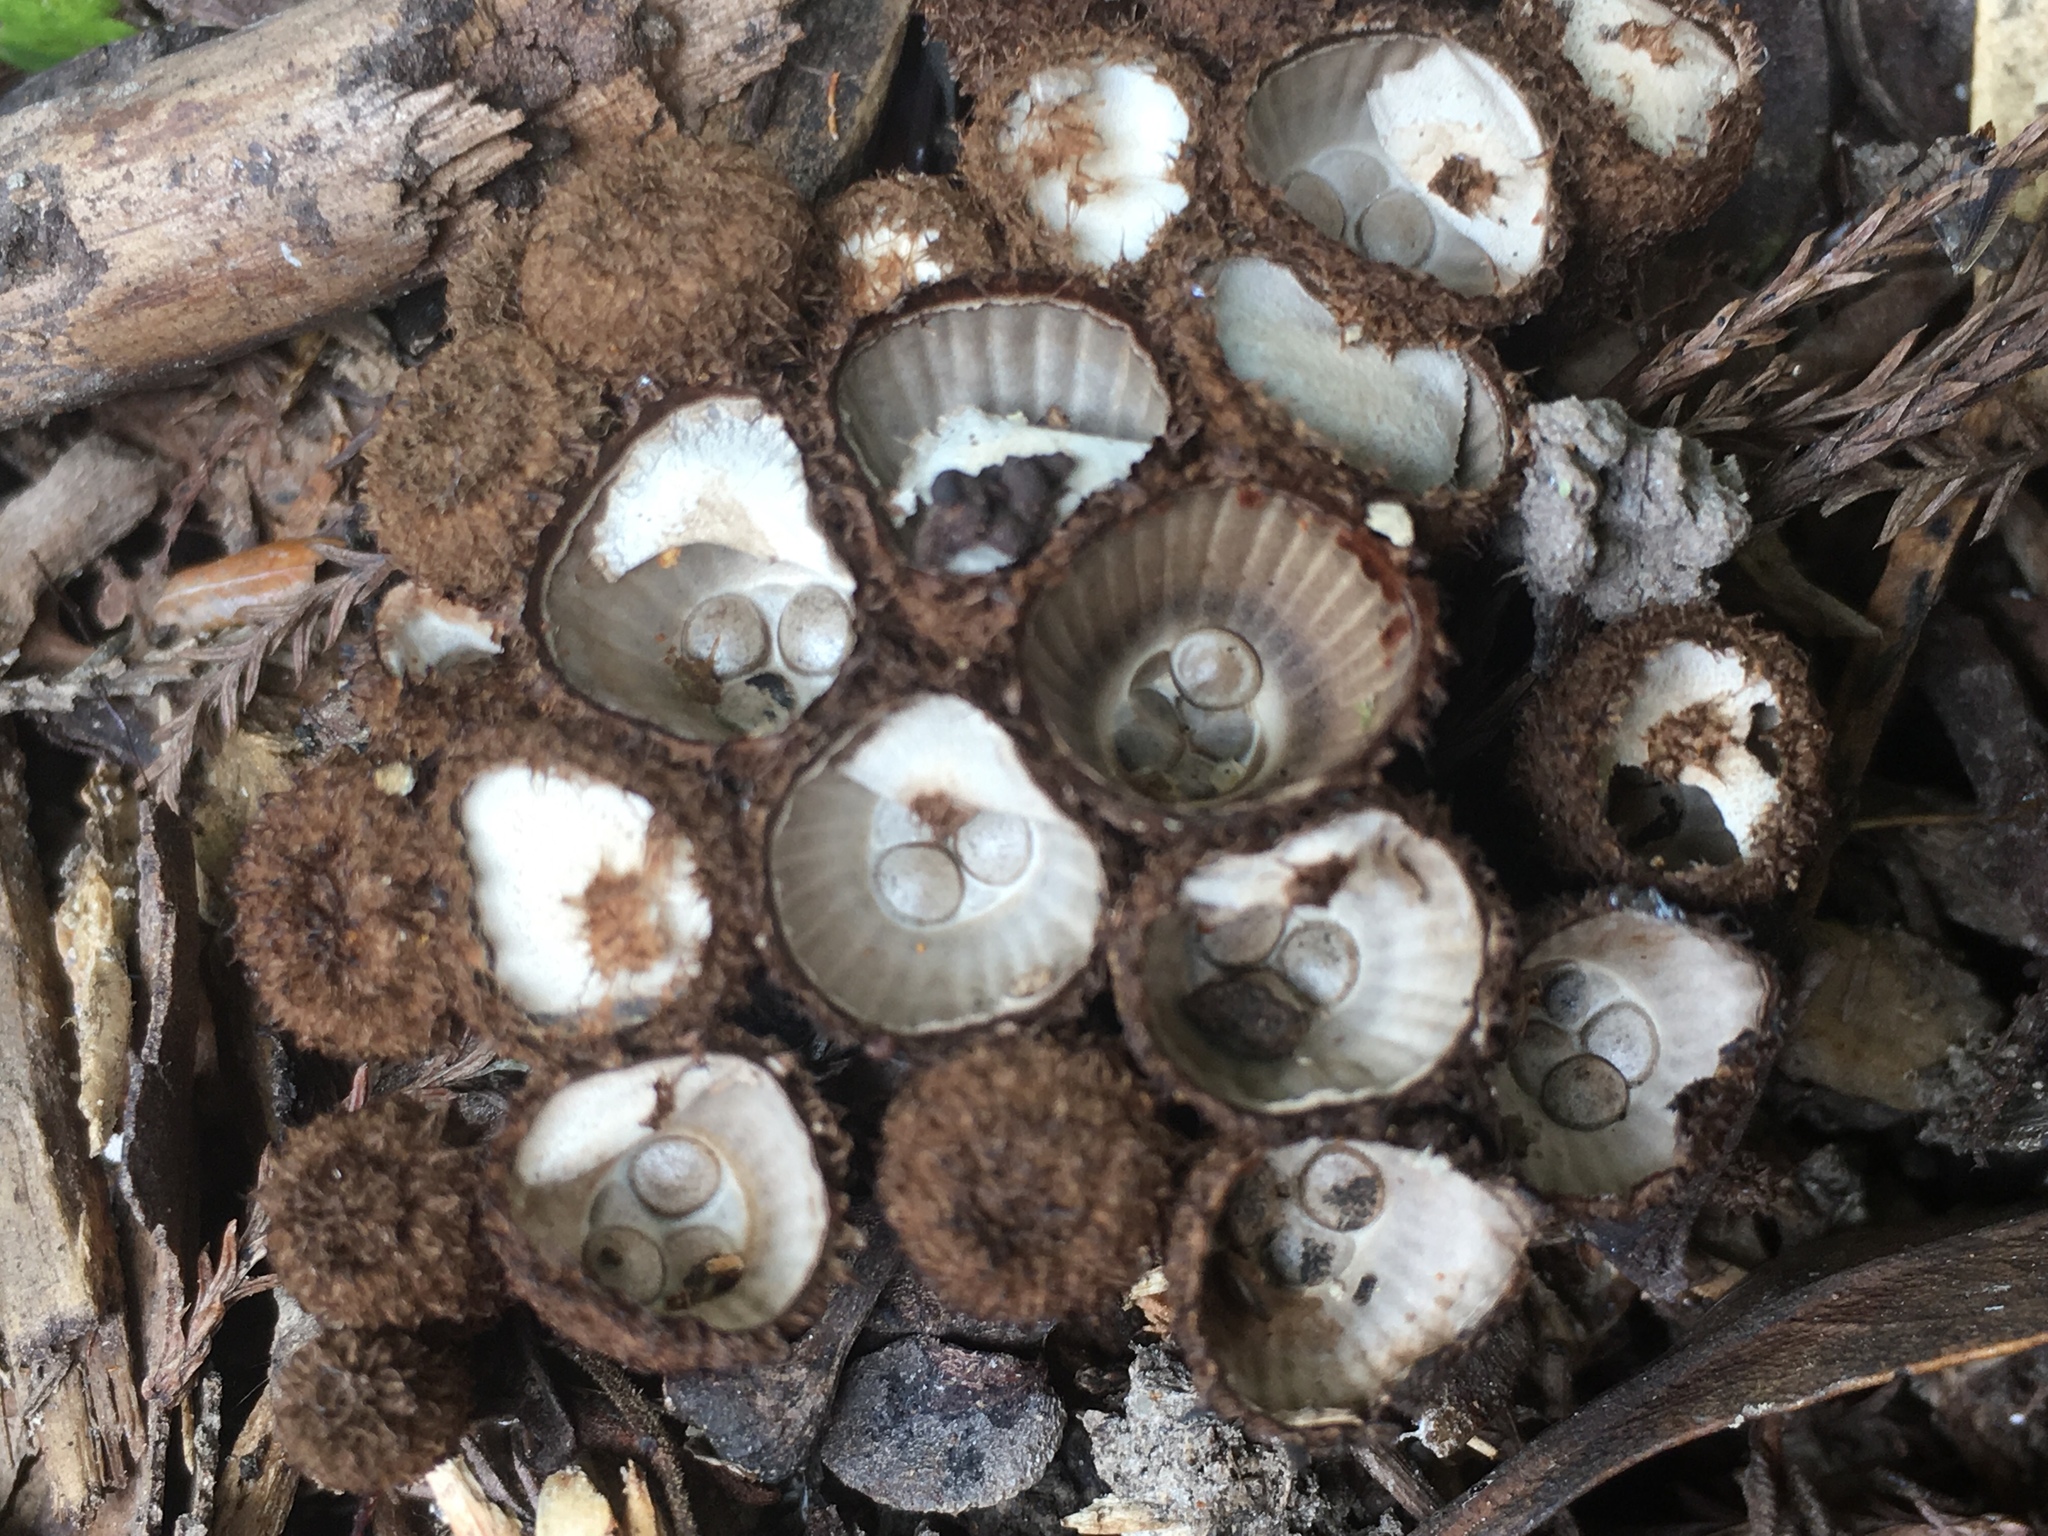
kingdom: Fungi
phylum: Basidiomycota
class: Agaricomycetes
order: Agaricales
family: Agaricaceae
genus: Cyathus
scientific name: Cyathus striatus
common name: Fluted bird's nest
